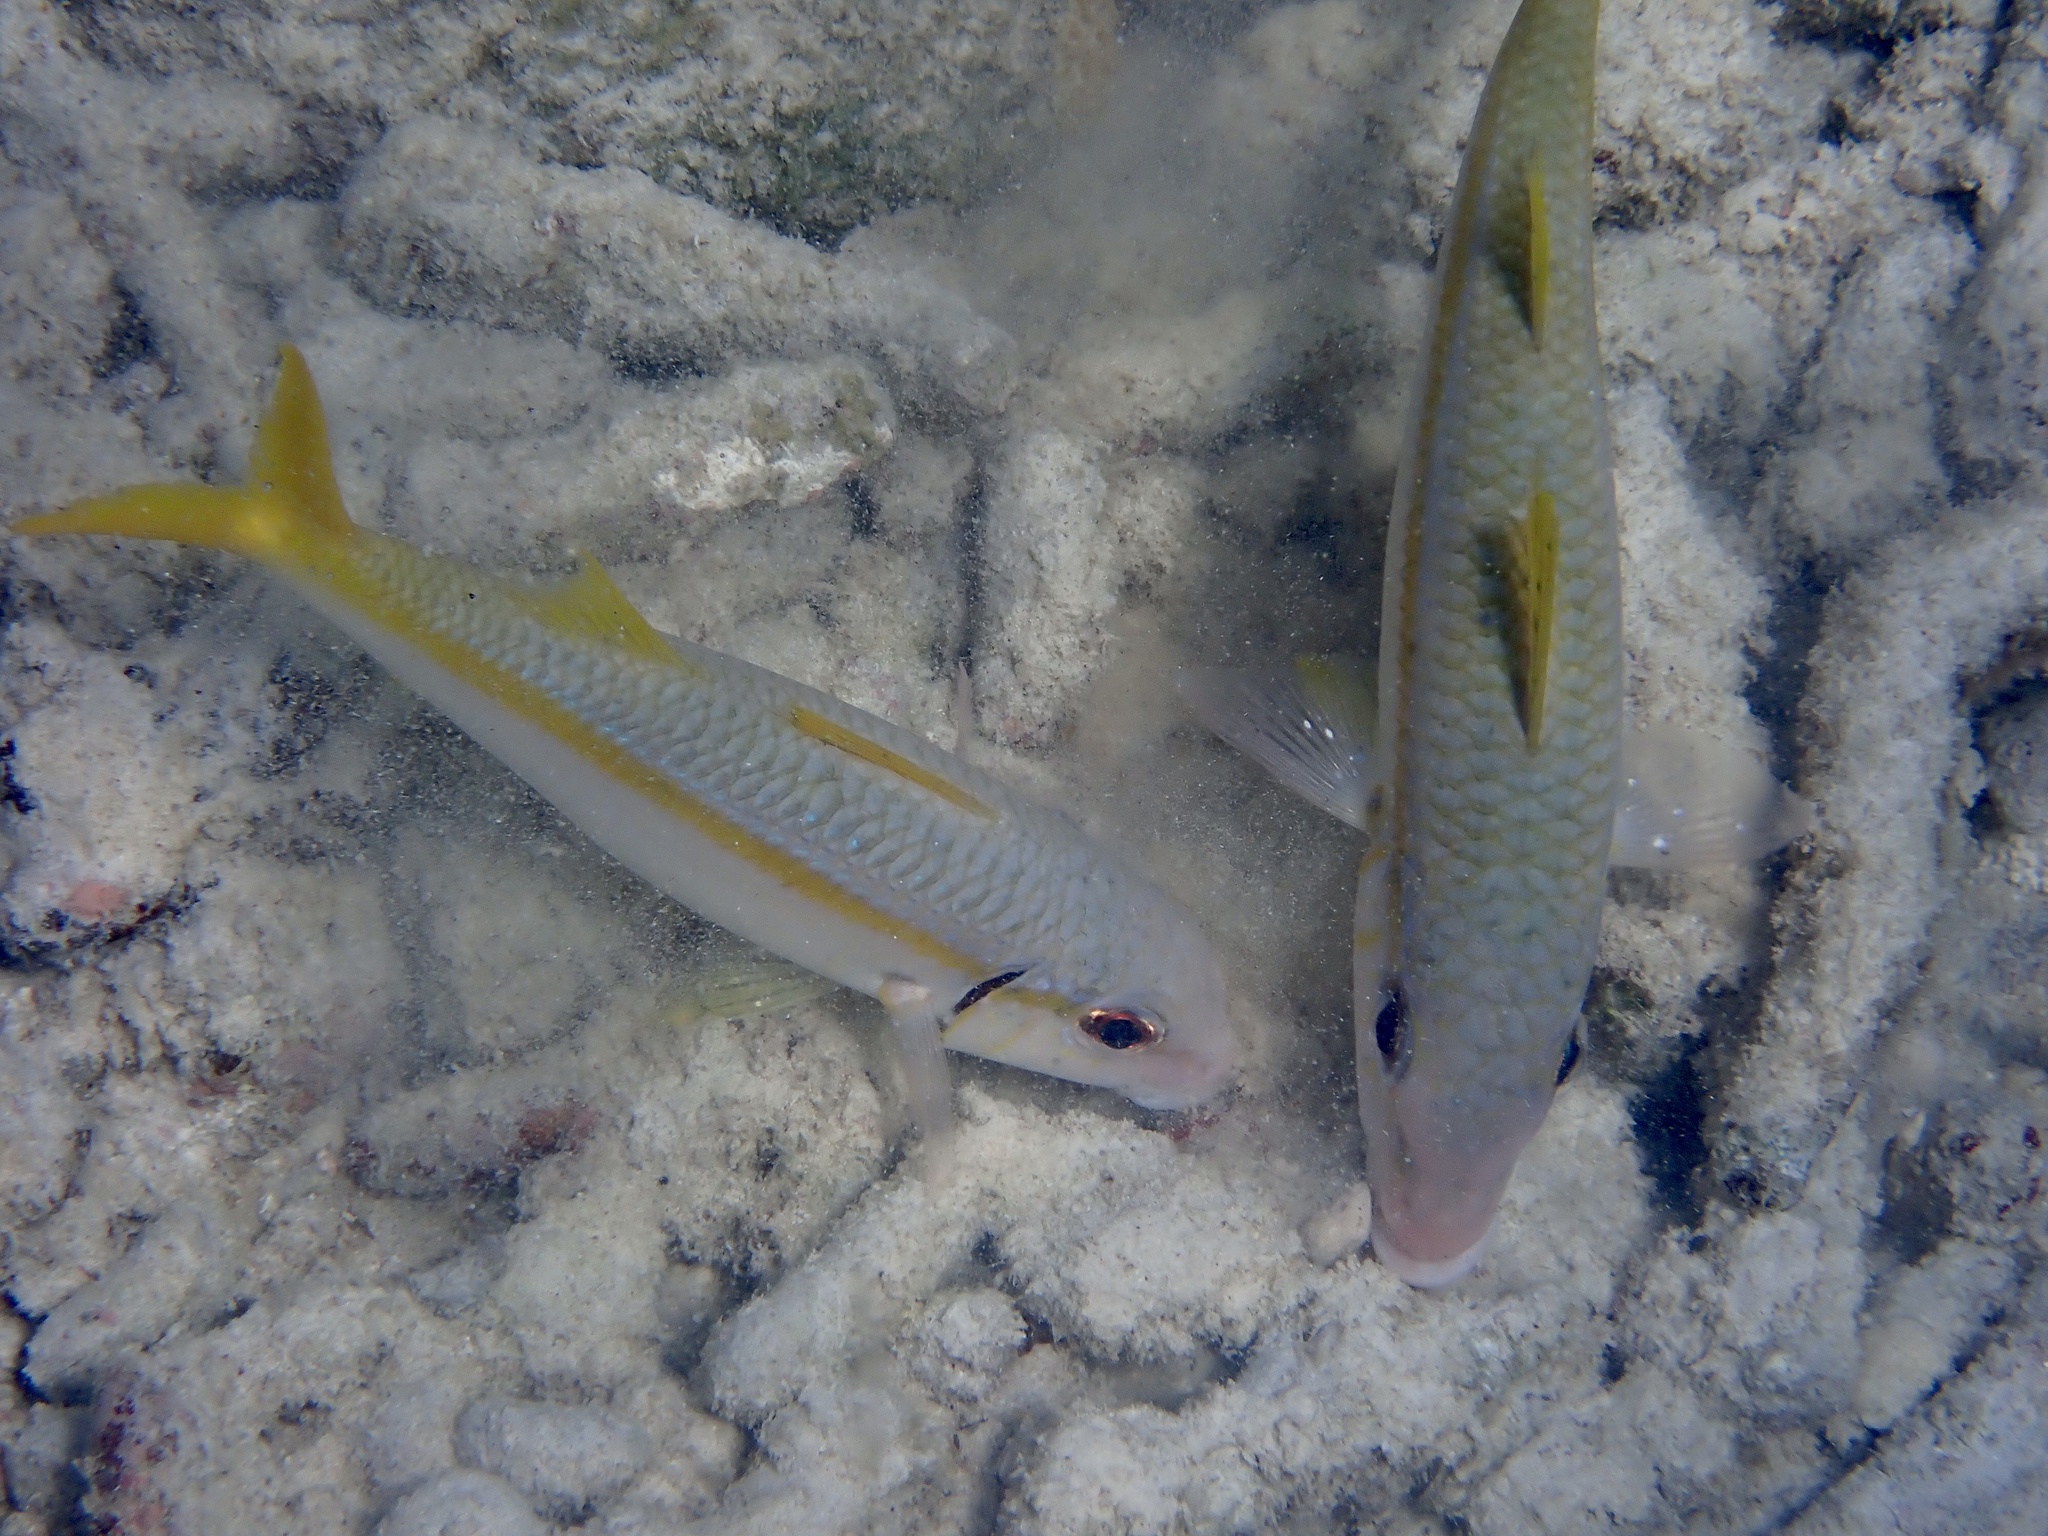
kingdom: Animalia
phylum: Chordata
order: Perciformes
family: Mullidae
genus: Mulloidichthys
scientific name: Mulloidichthys martinicus
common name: Yellow goatfish
